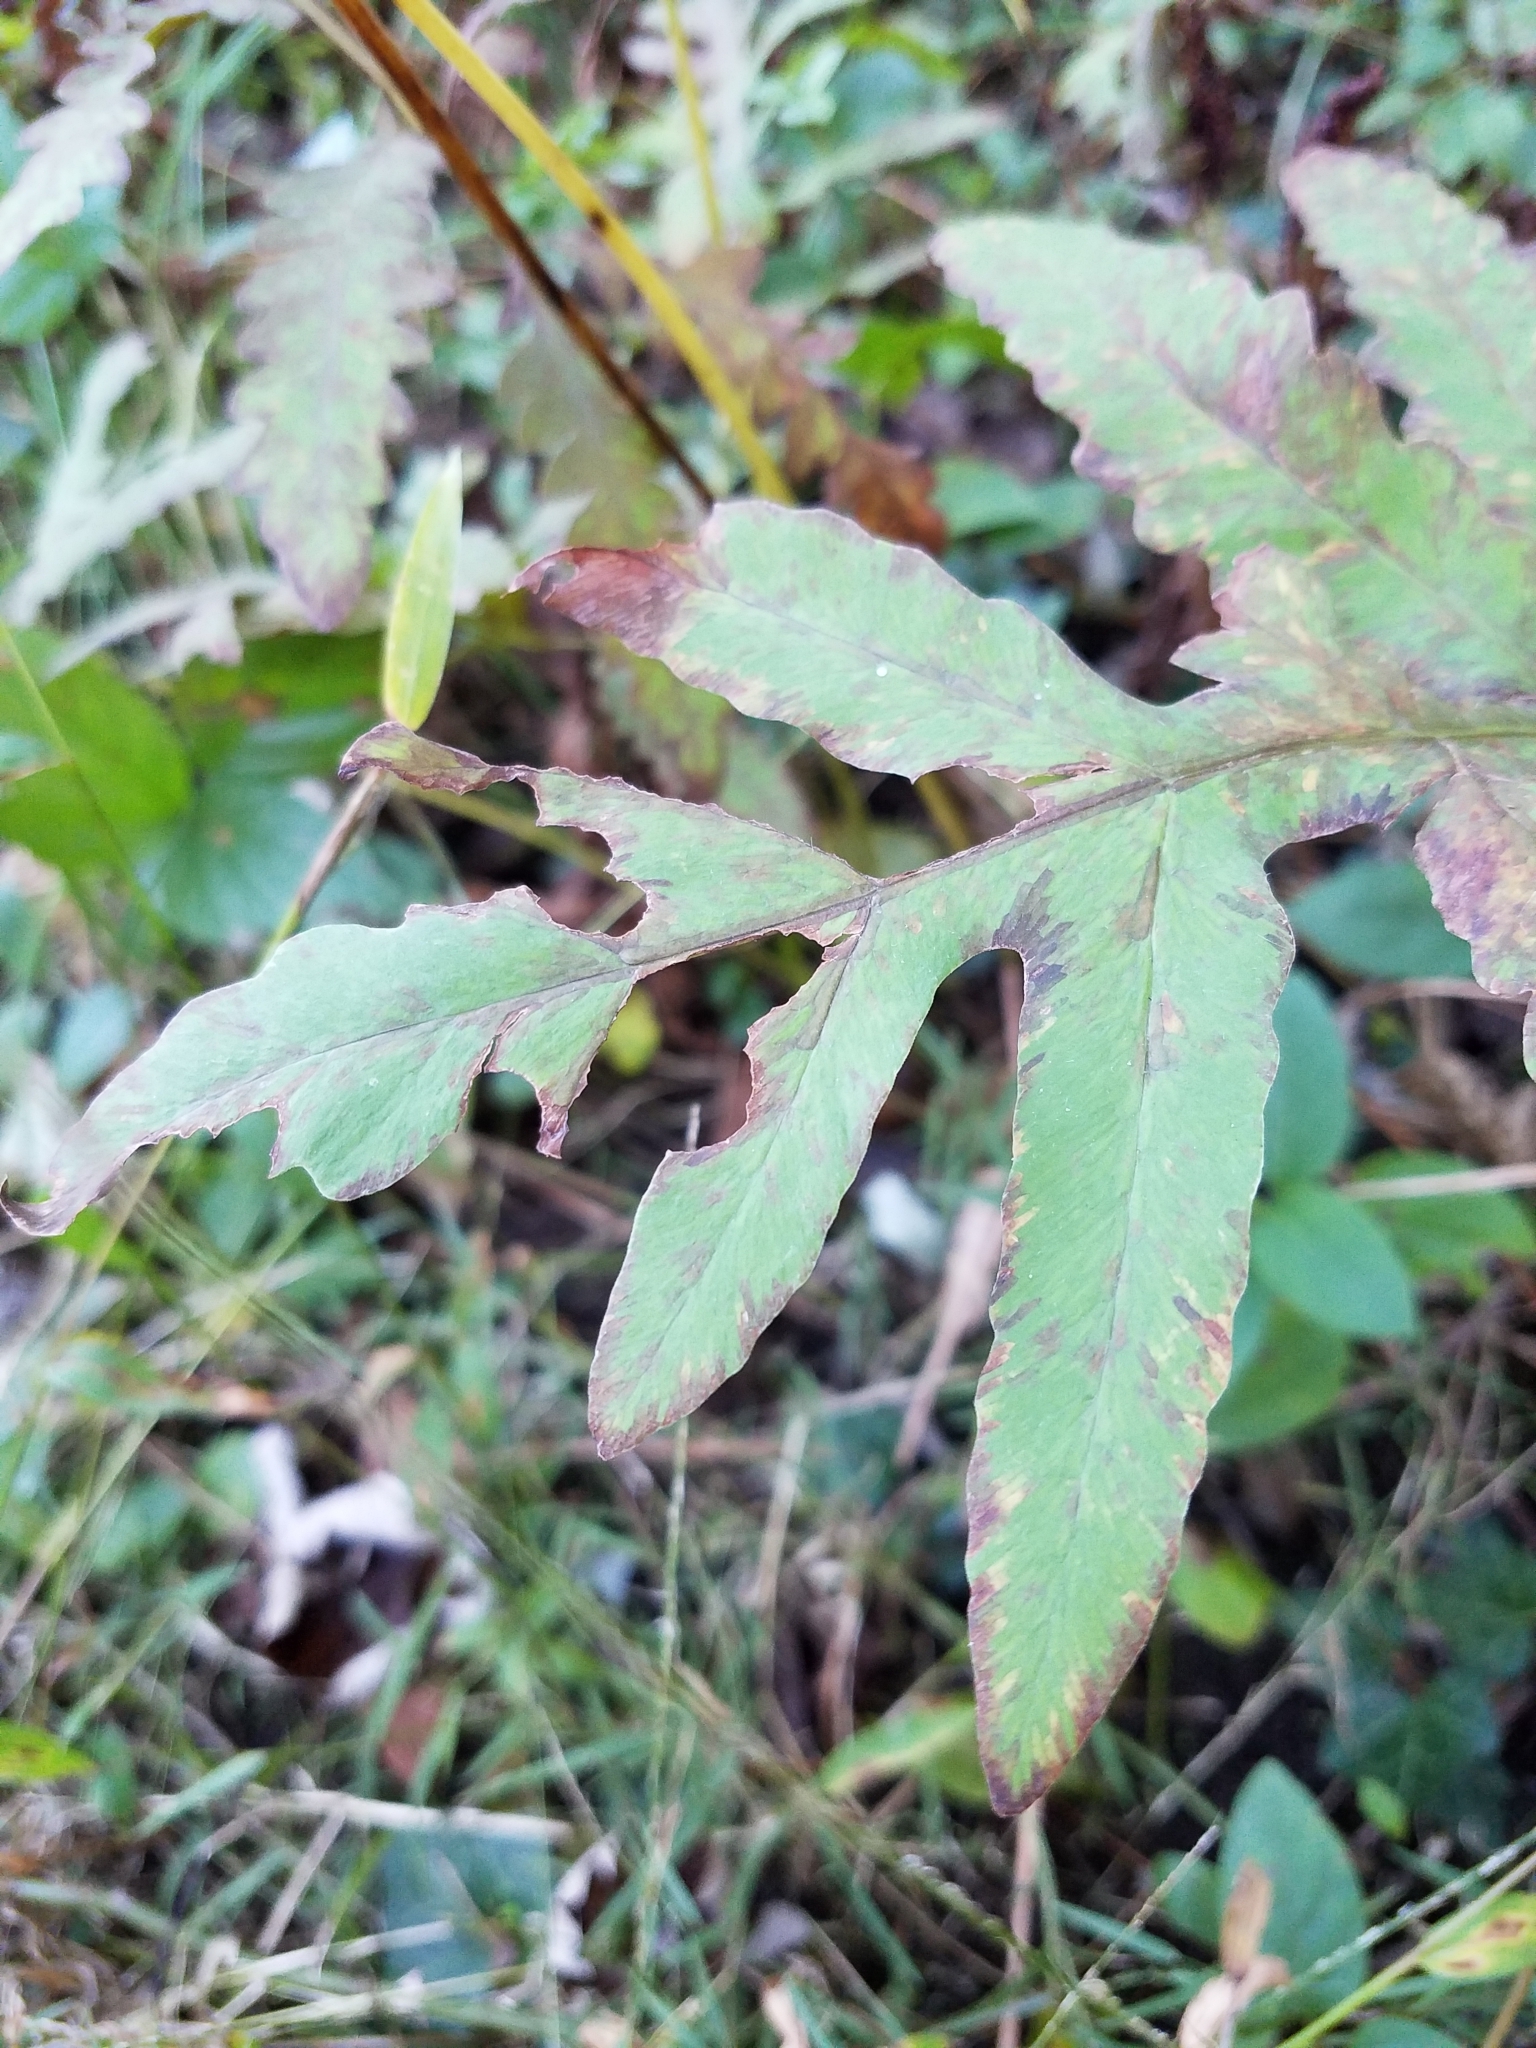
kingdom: Plantae
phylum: Tracheophyta
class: Polypodiopsida
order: Polypodiales
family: Onocleaceae
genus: Onoclea
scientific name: Onoclea sensibilis
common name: Sensitive fern
